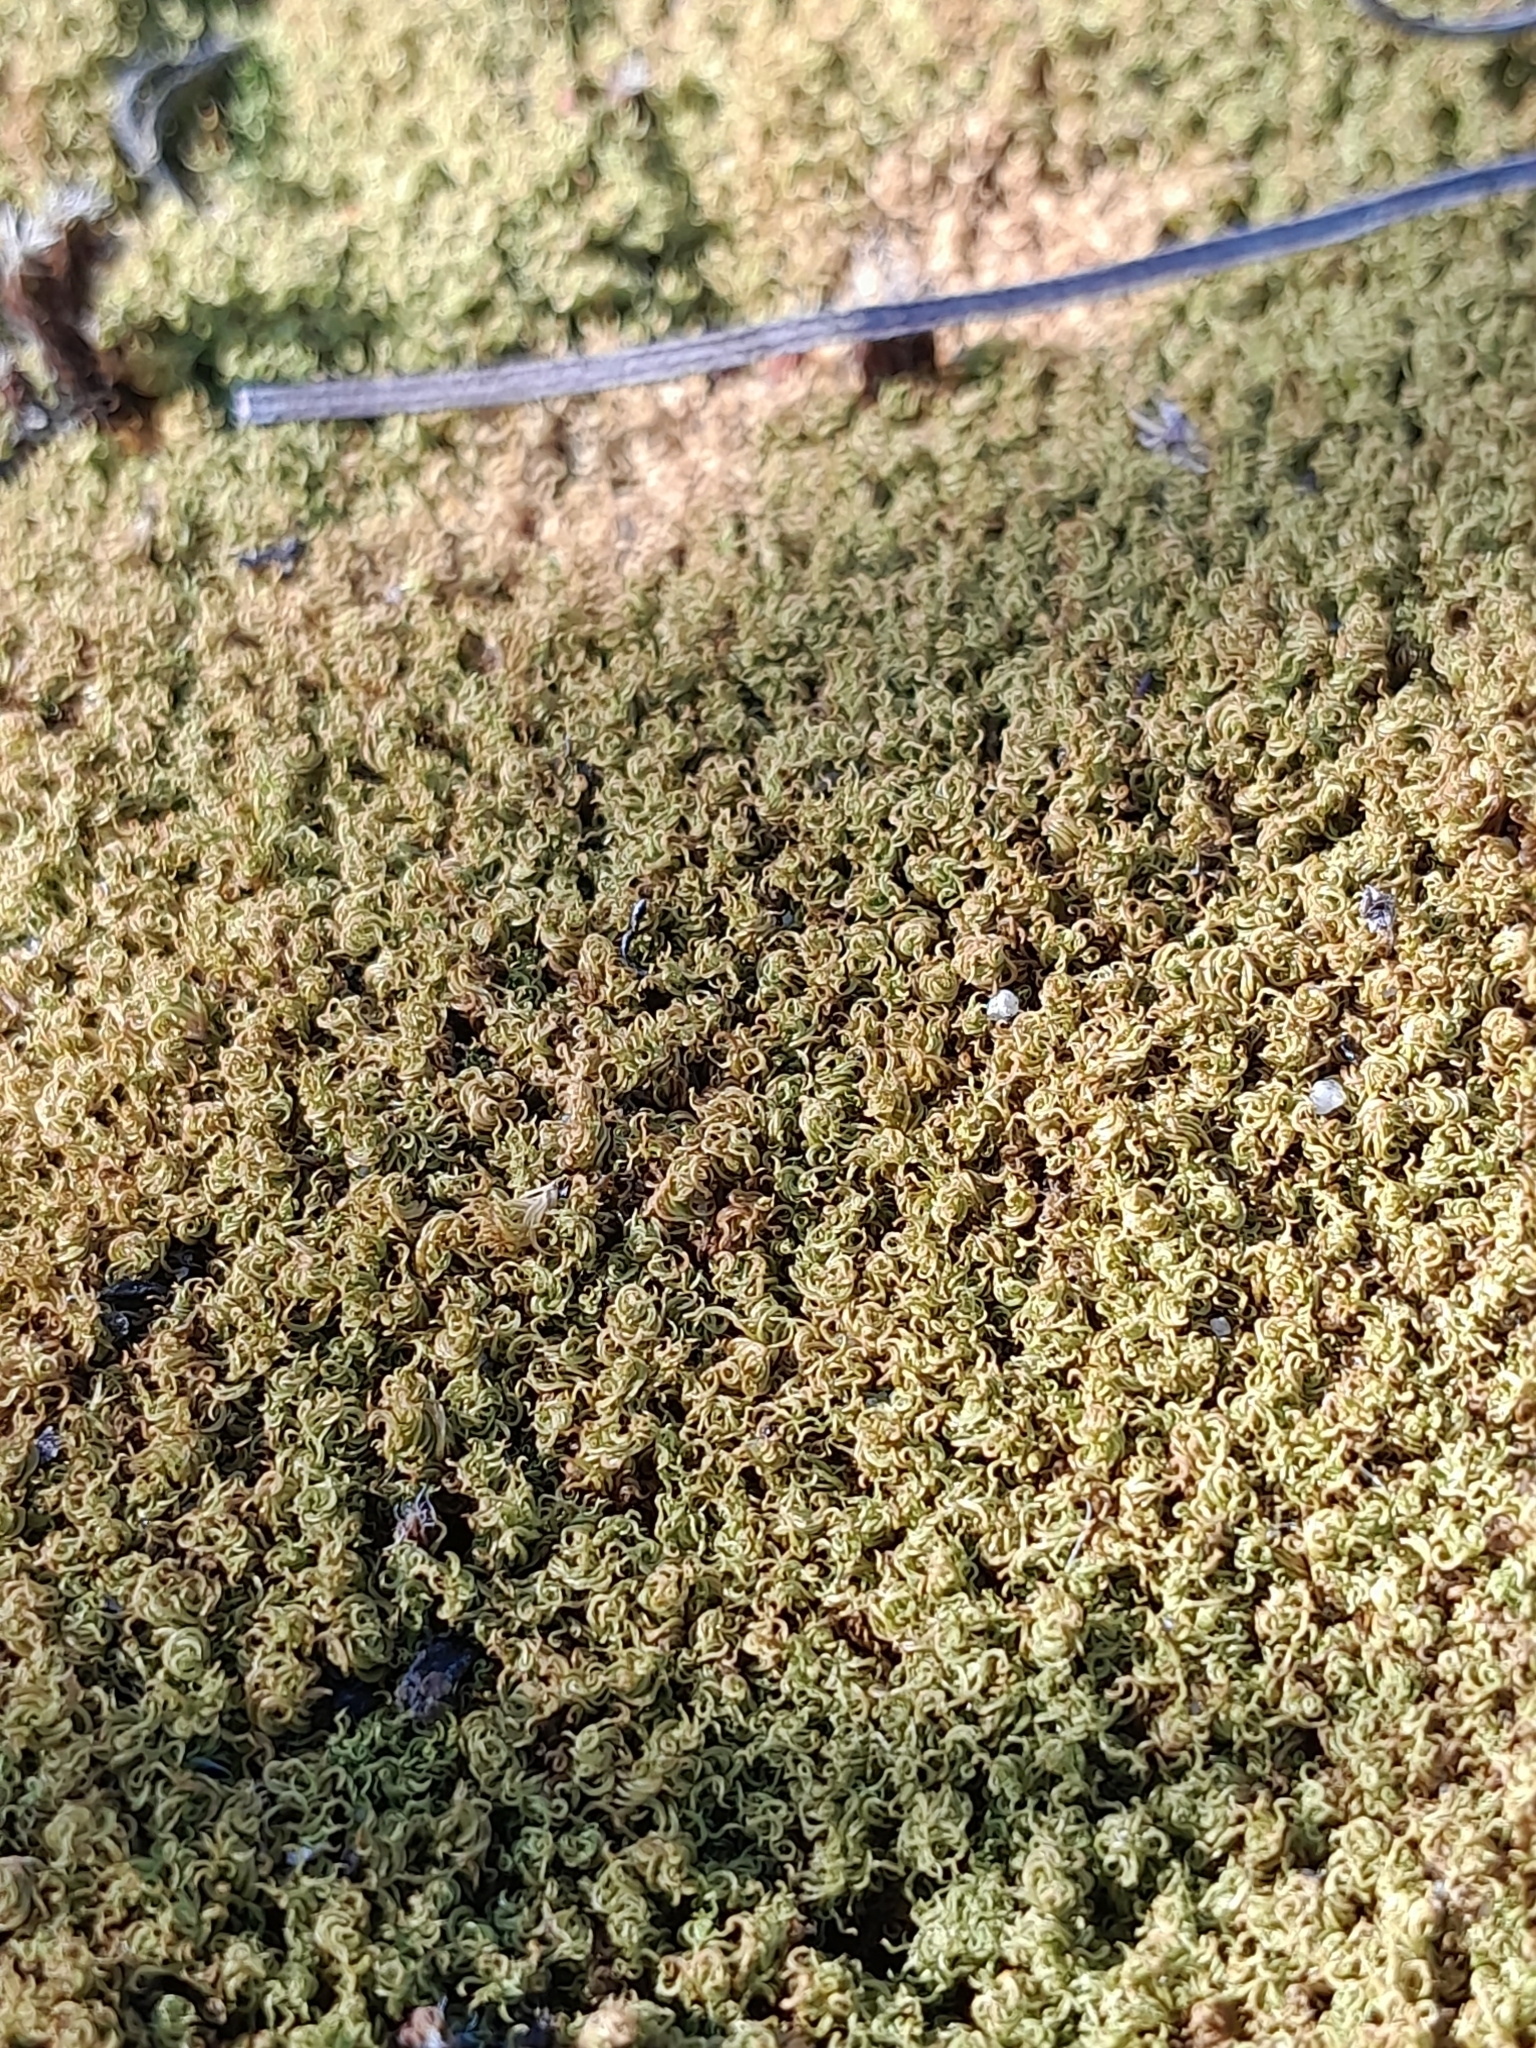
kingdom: Plantae
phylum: Bryophyta
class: Bryopsida
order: Pottiales
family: Pottiaceae
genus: Pleurochaete
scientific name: Pleurochaete squarrosa
